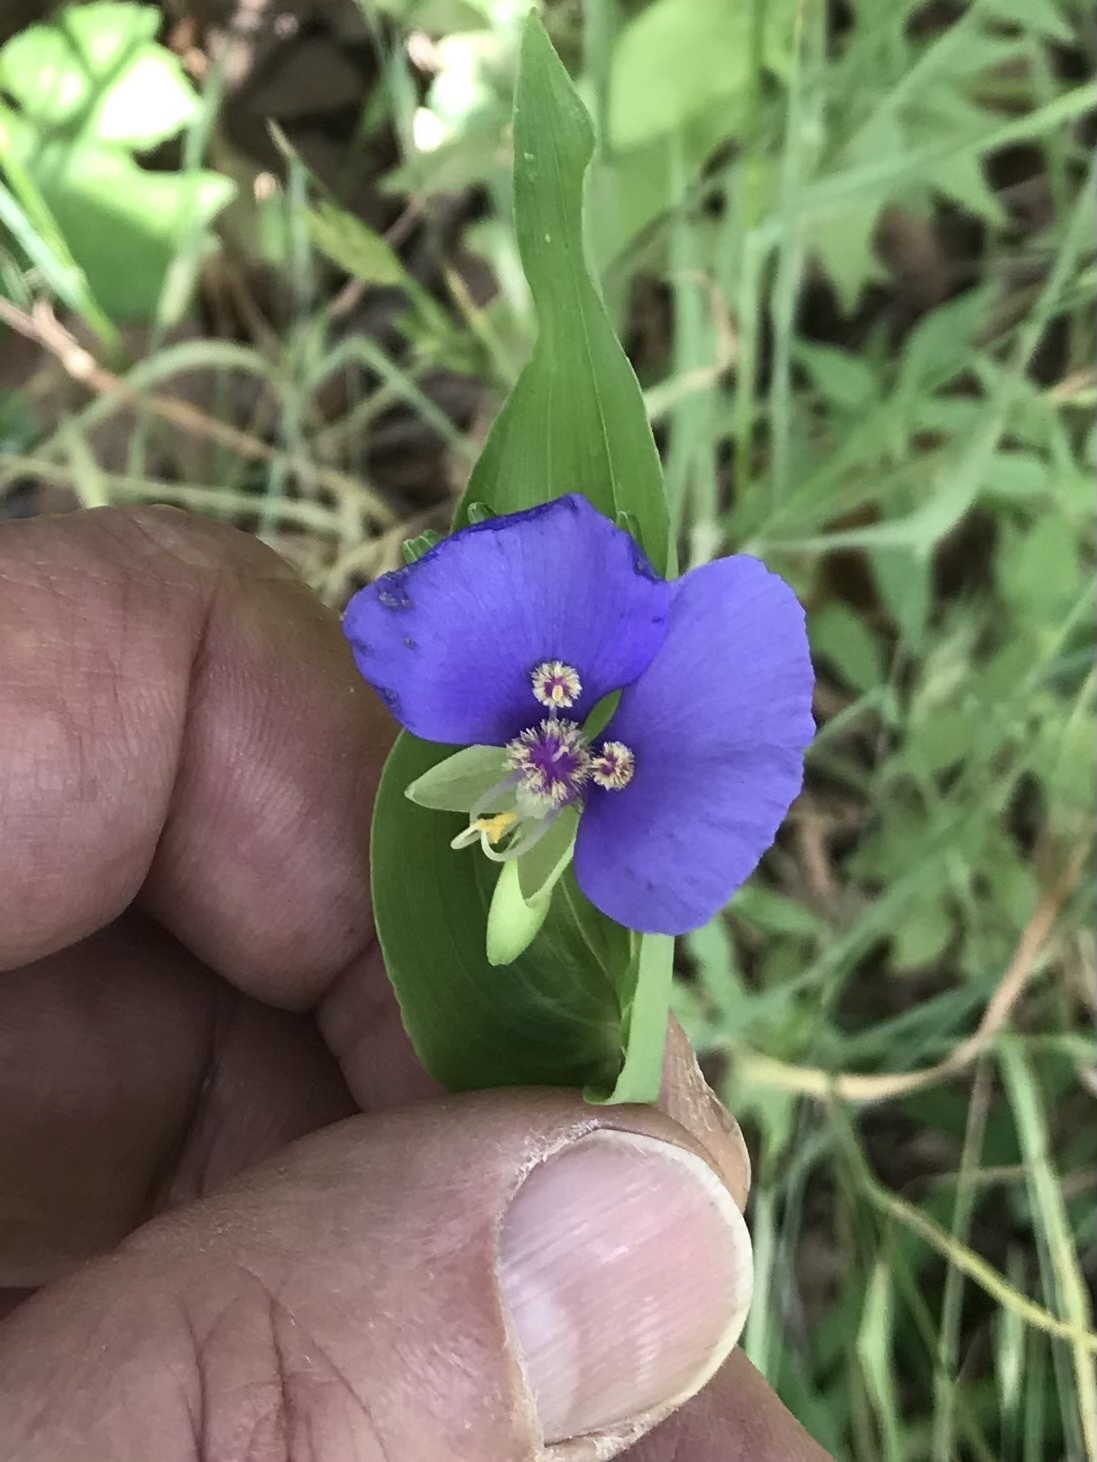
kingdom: Plantae
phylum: Tracheophyta
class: Liliopsida
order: Commelinales
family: Commelinaceae
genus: Tinantia
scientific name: Tinantia anomala
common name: False dayflower
